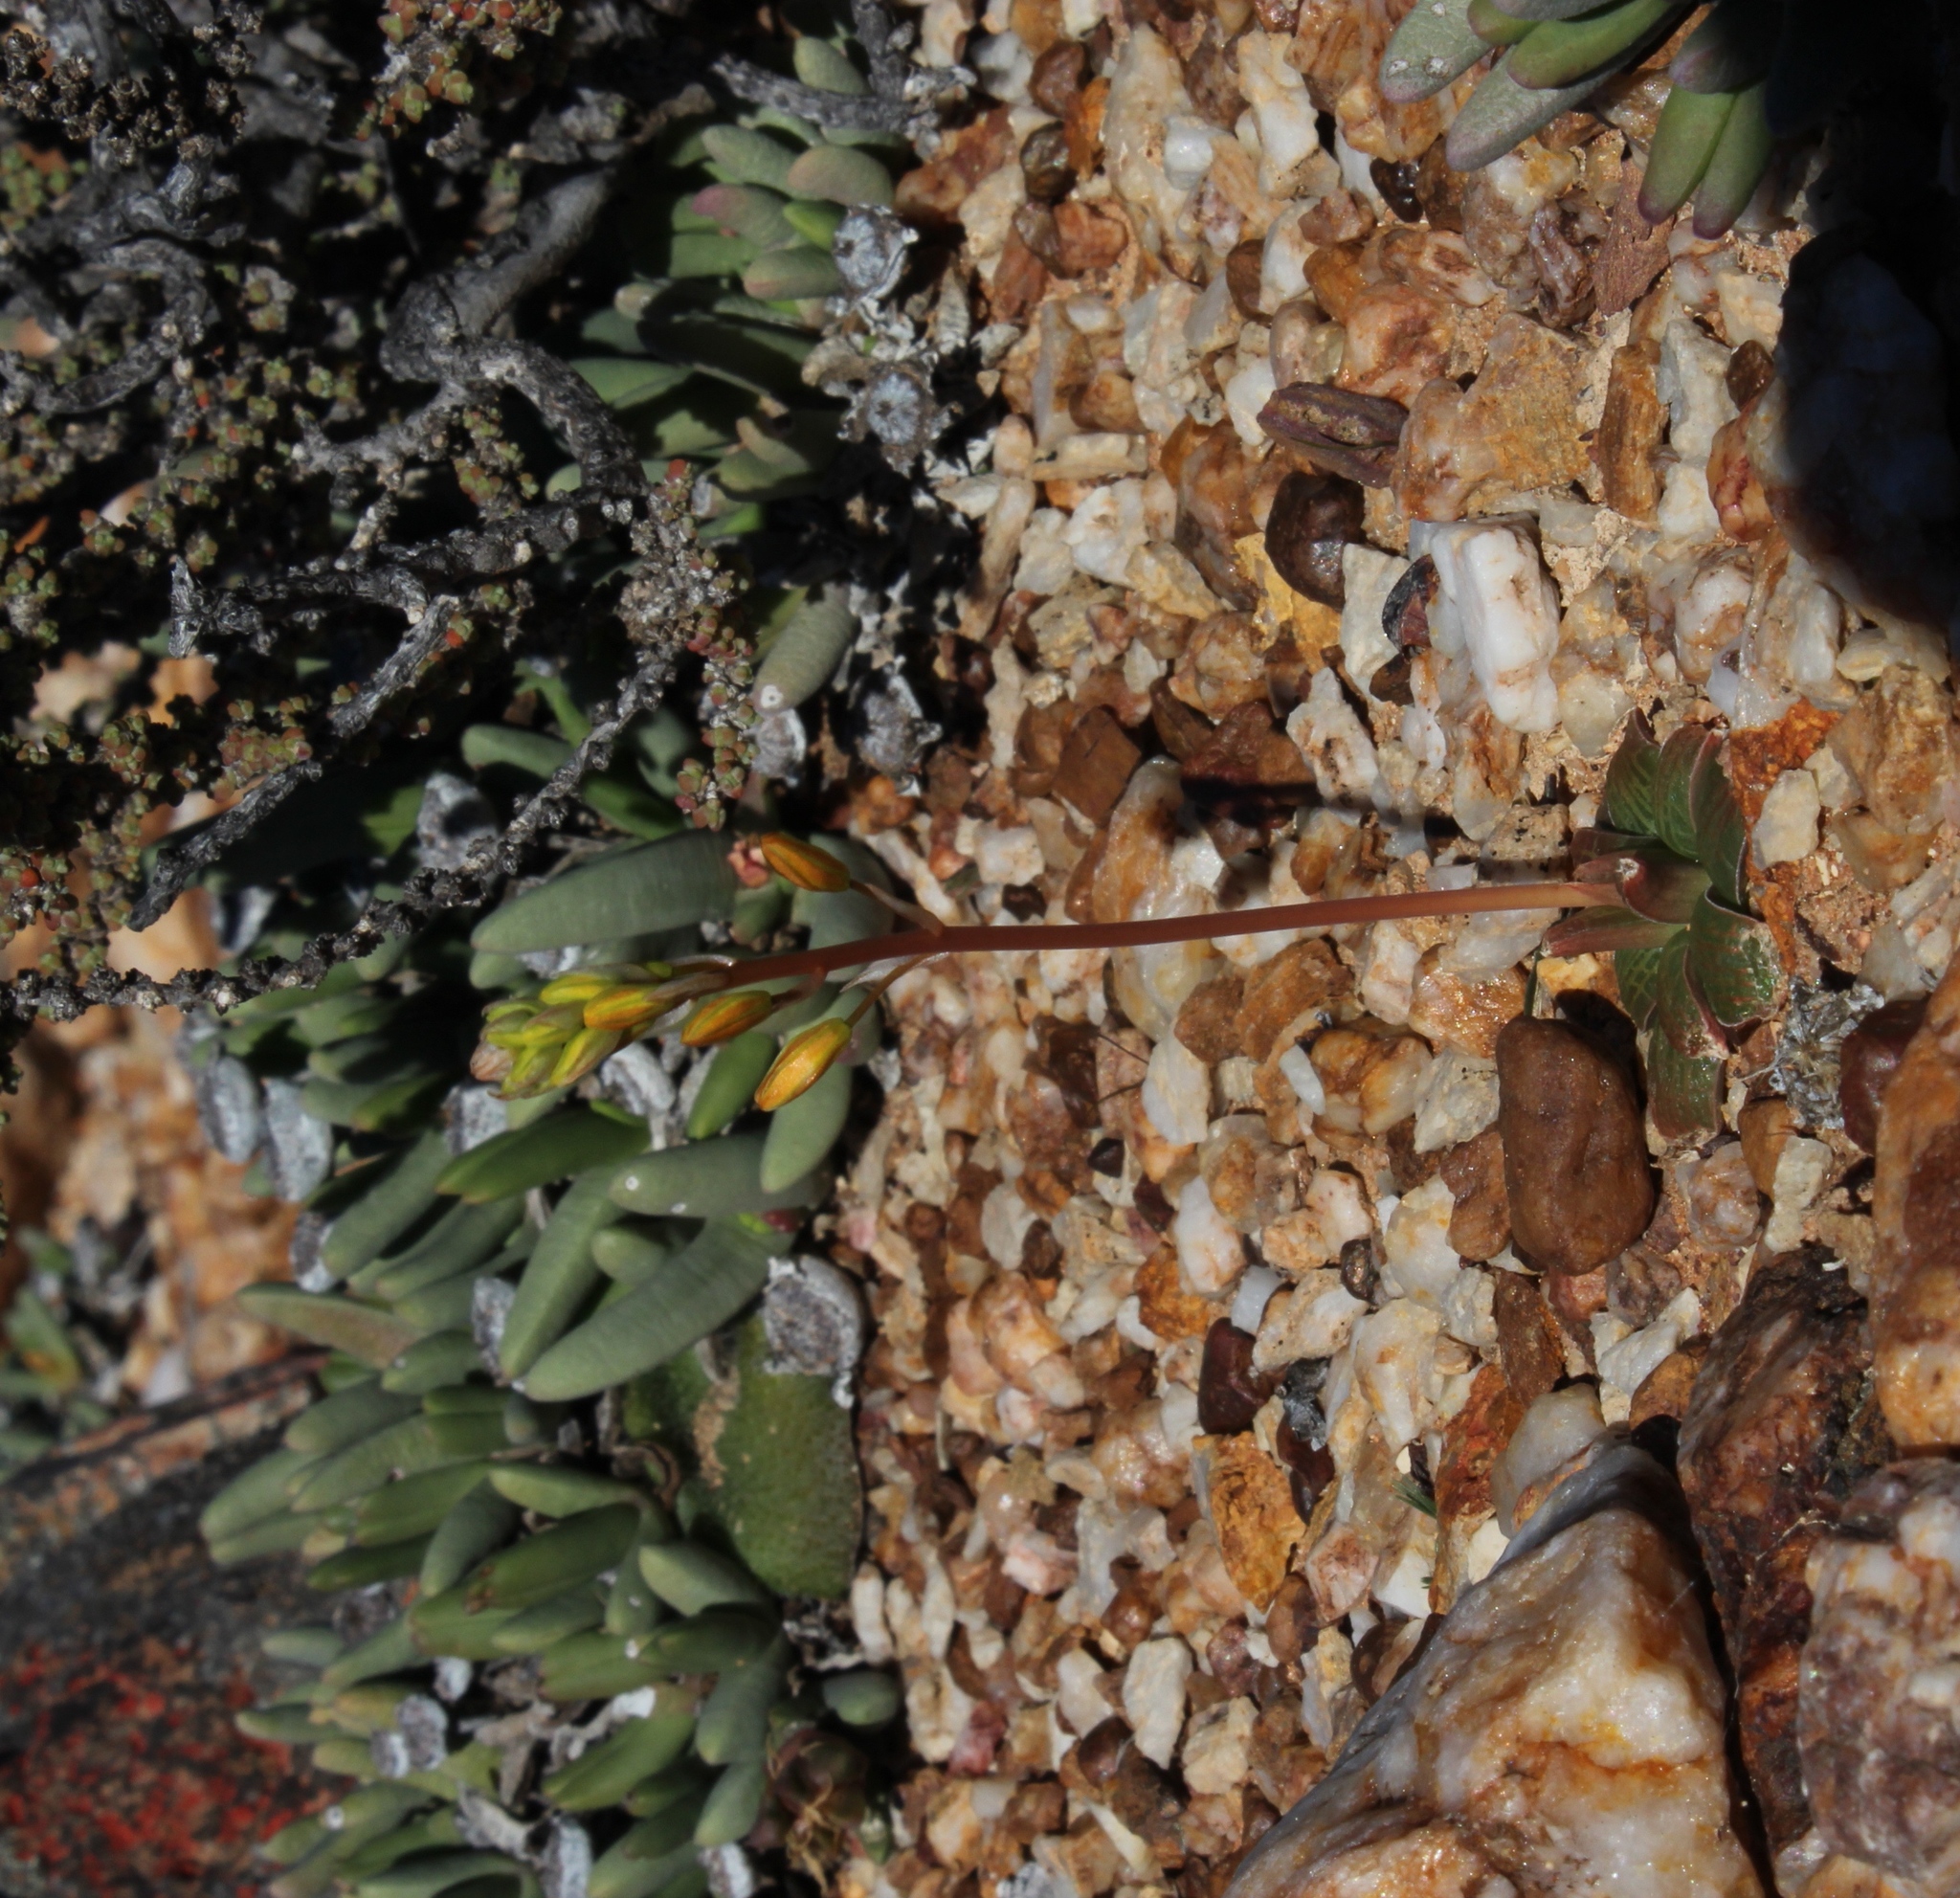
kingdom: Plantae
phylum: Tracheophyta
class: Liliopsida
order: Asparagales
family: Asphodelaceae
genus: Bulbine
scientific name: Bulbine fallax
